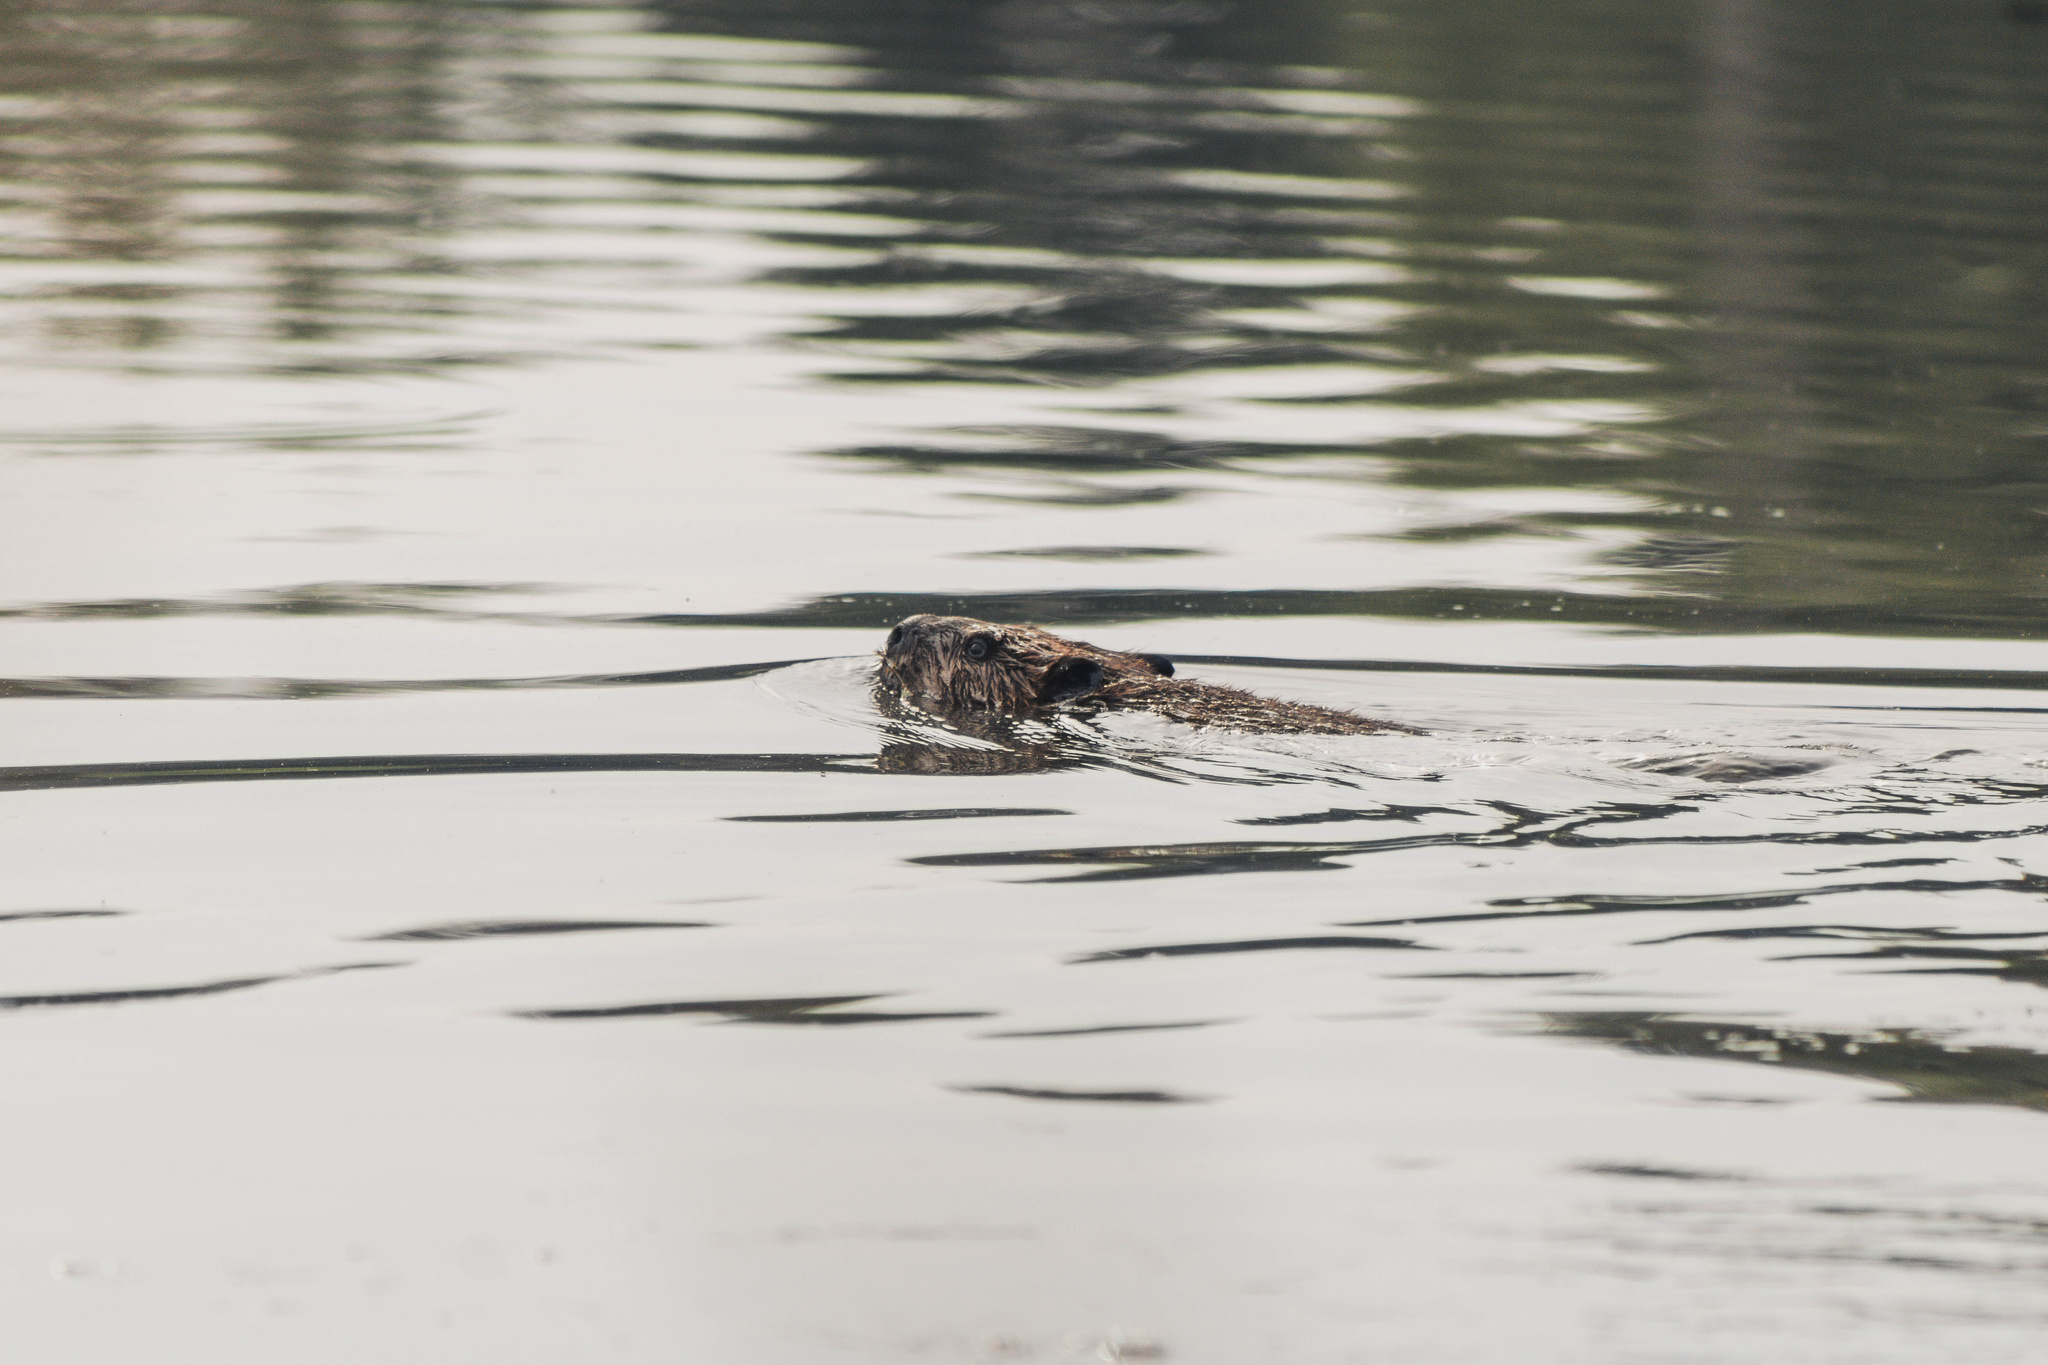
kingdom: Animalia
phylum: Chordata
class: Mammalia
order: Rodentia
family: Castoridae
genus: Castor
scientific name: Castor canadensis
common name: American beaver
